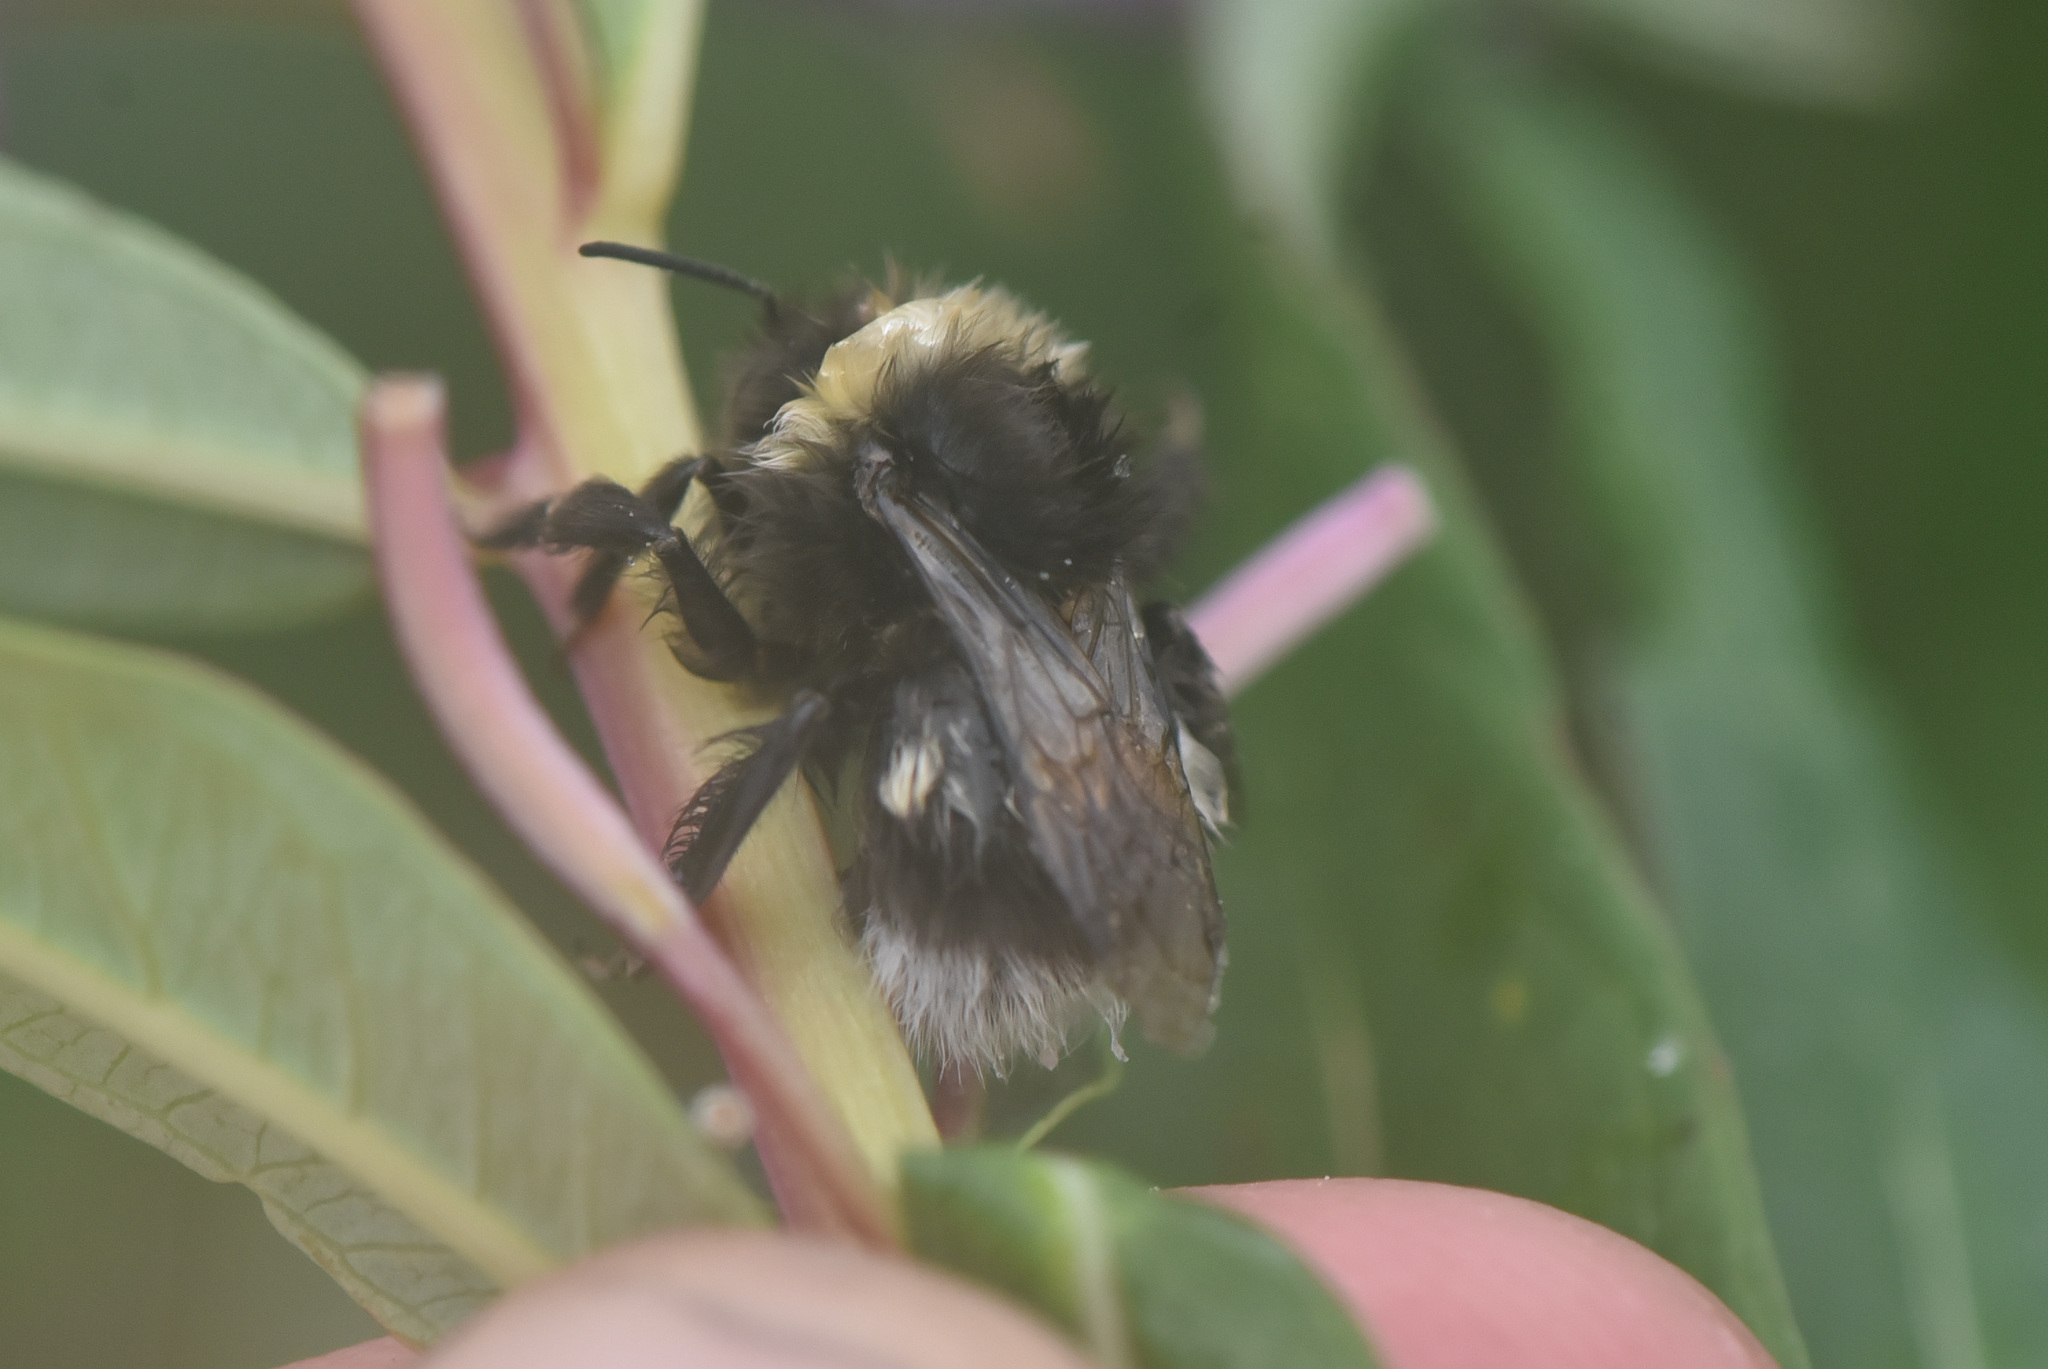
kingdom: Animalia
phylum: Arthropoda
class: Insecta
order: Hymenoptera
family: Apidae
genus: Bombus
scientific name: Bombus cryptarum
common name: Cryptic bumblebee
